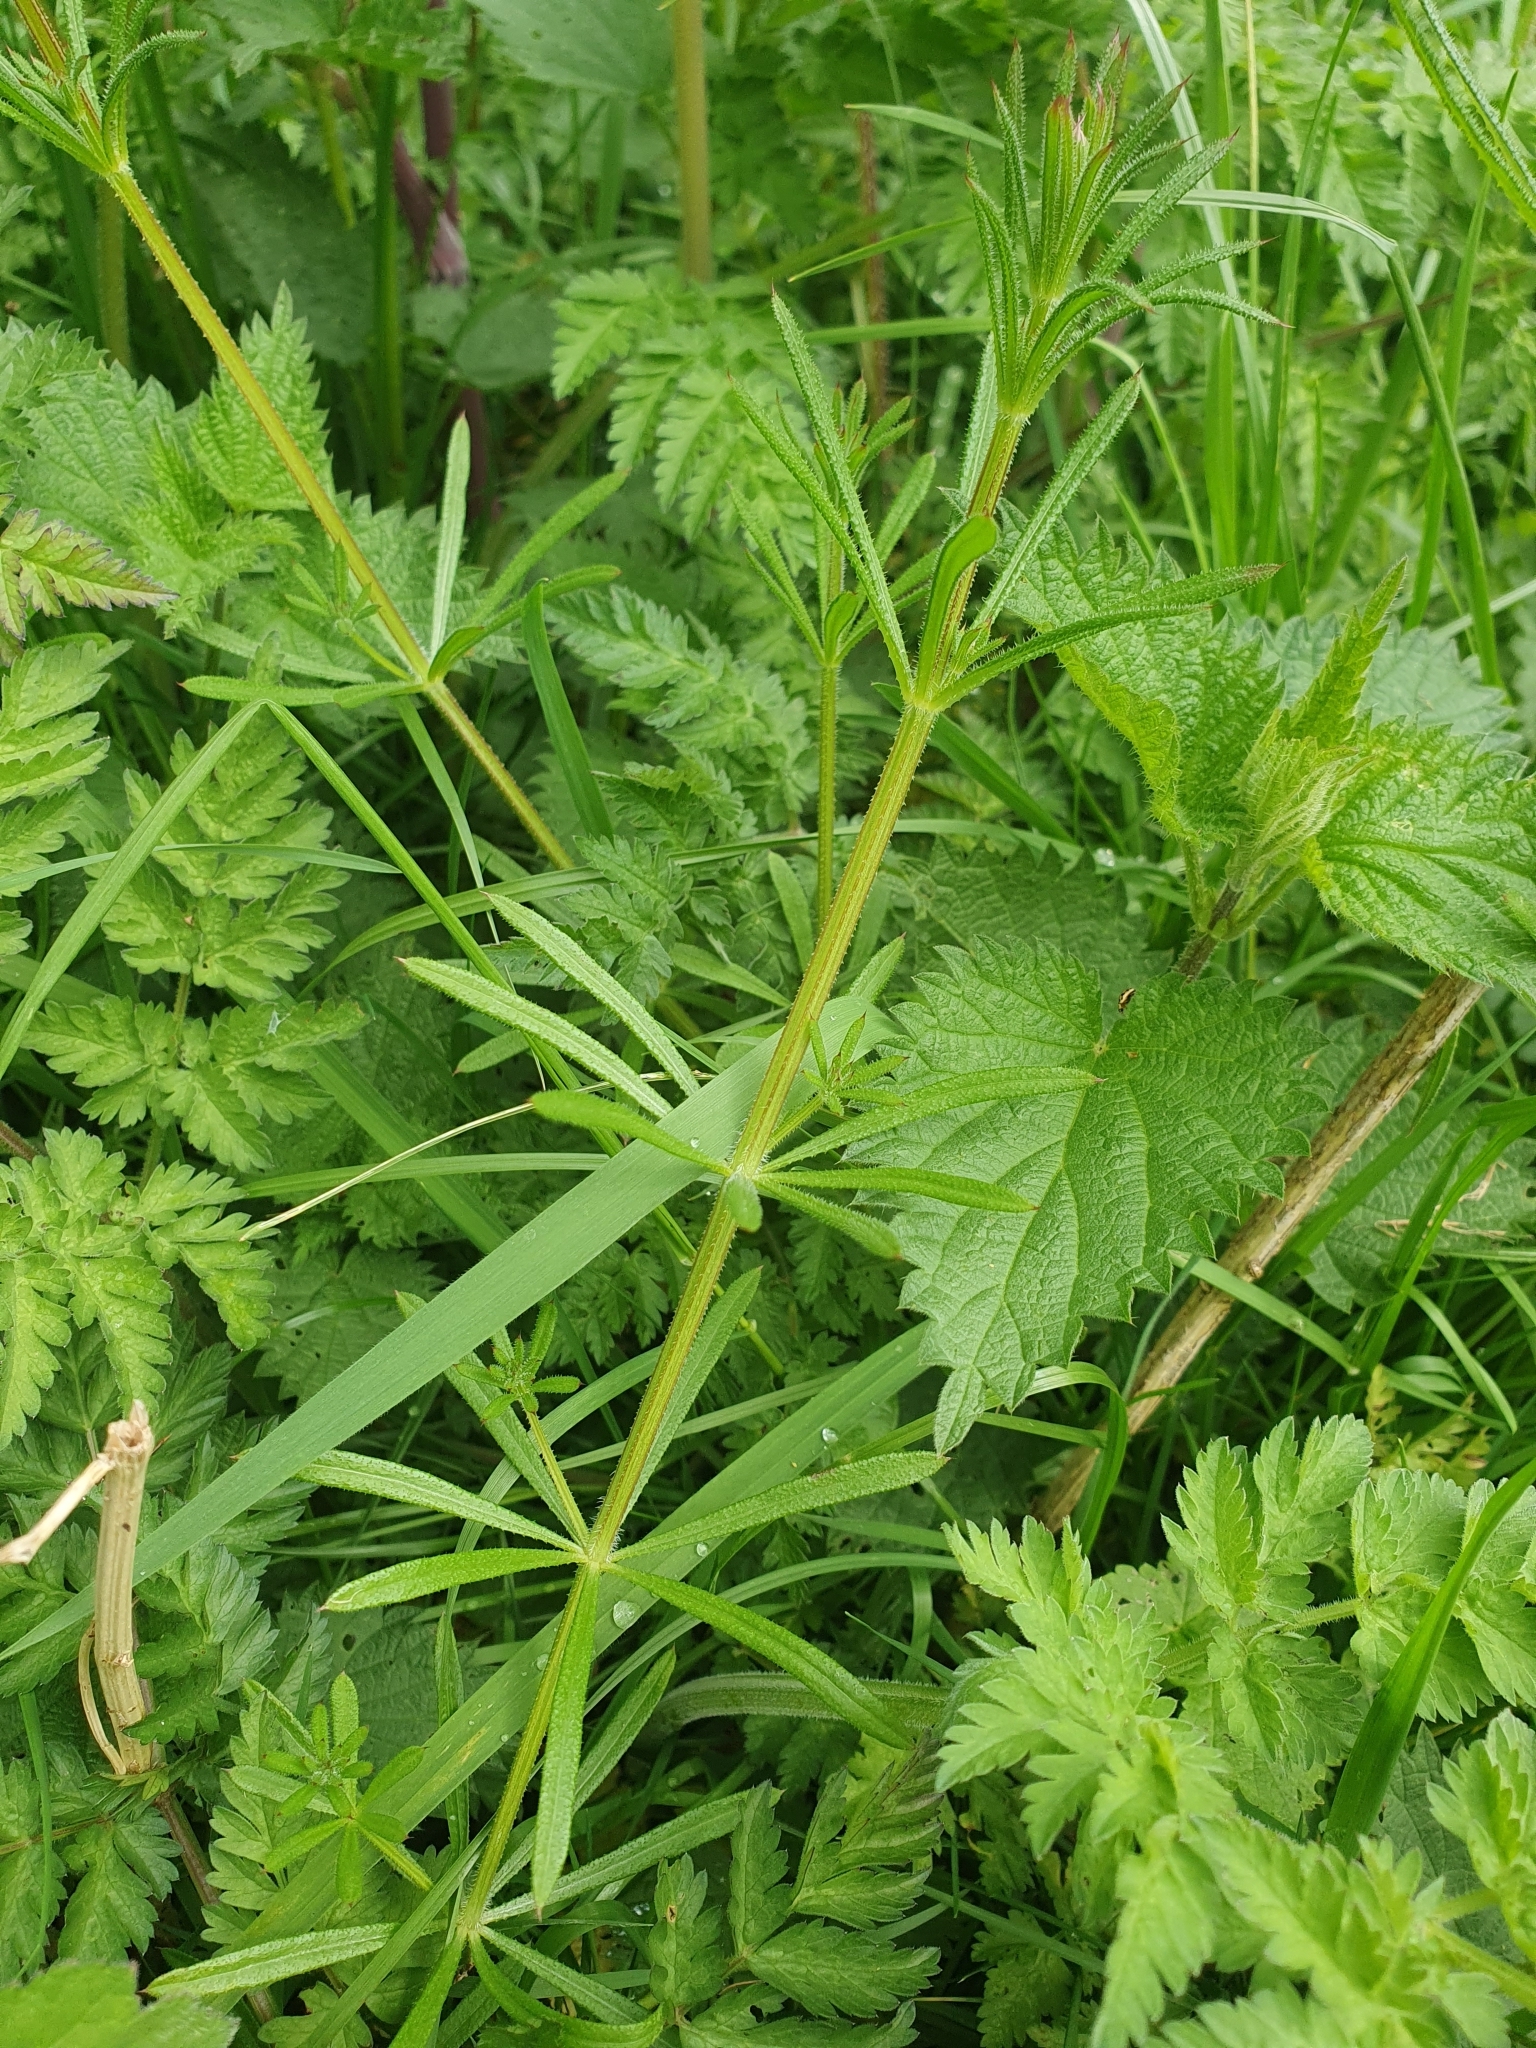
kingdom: Plantae
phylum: Tracheophyta
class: Magnoliopsida
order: Gentianales
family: Rubiaceae
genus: Galium
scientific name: Galium aparine
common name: Cleavers
